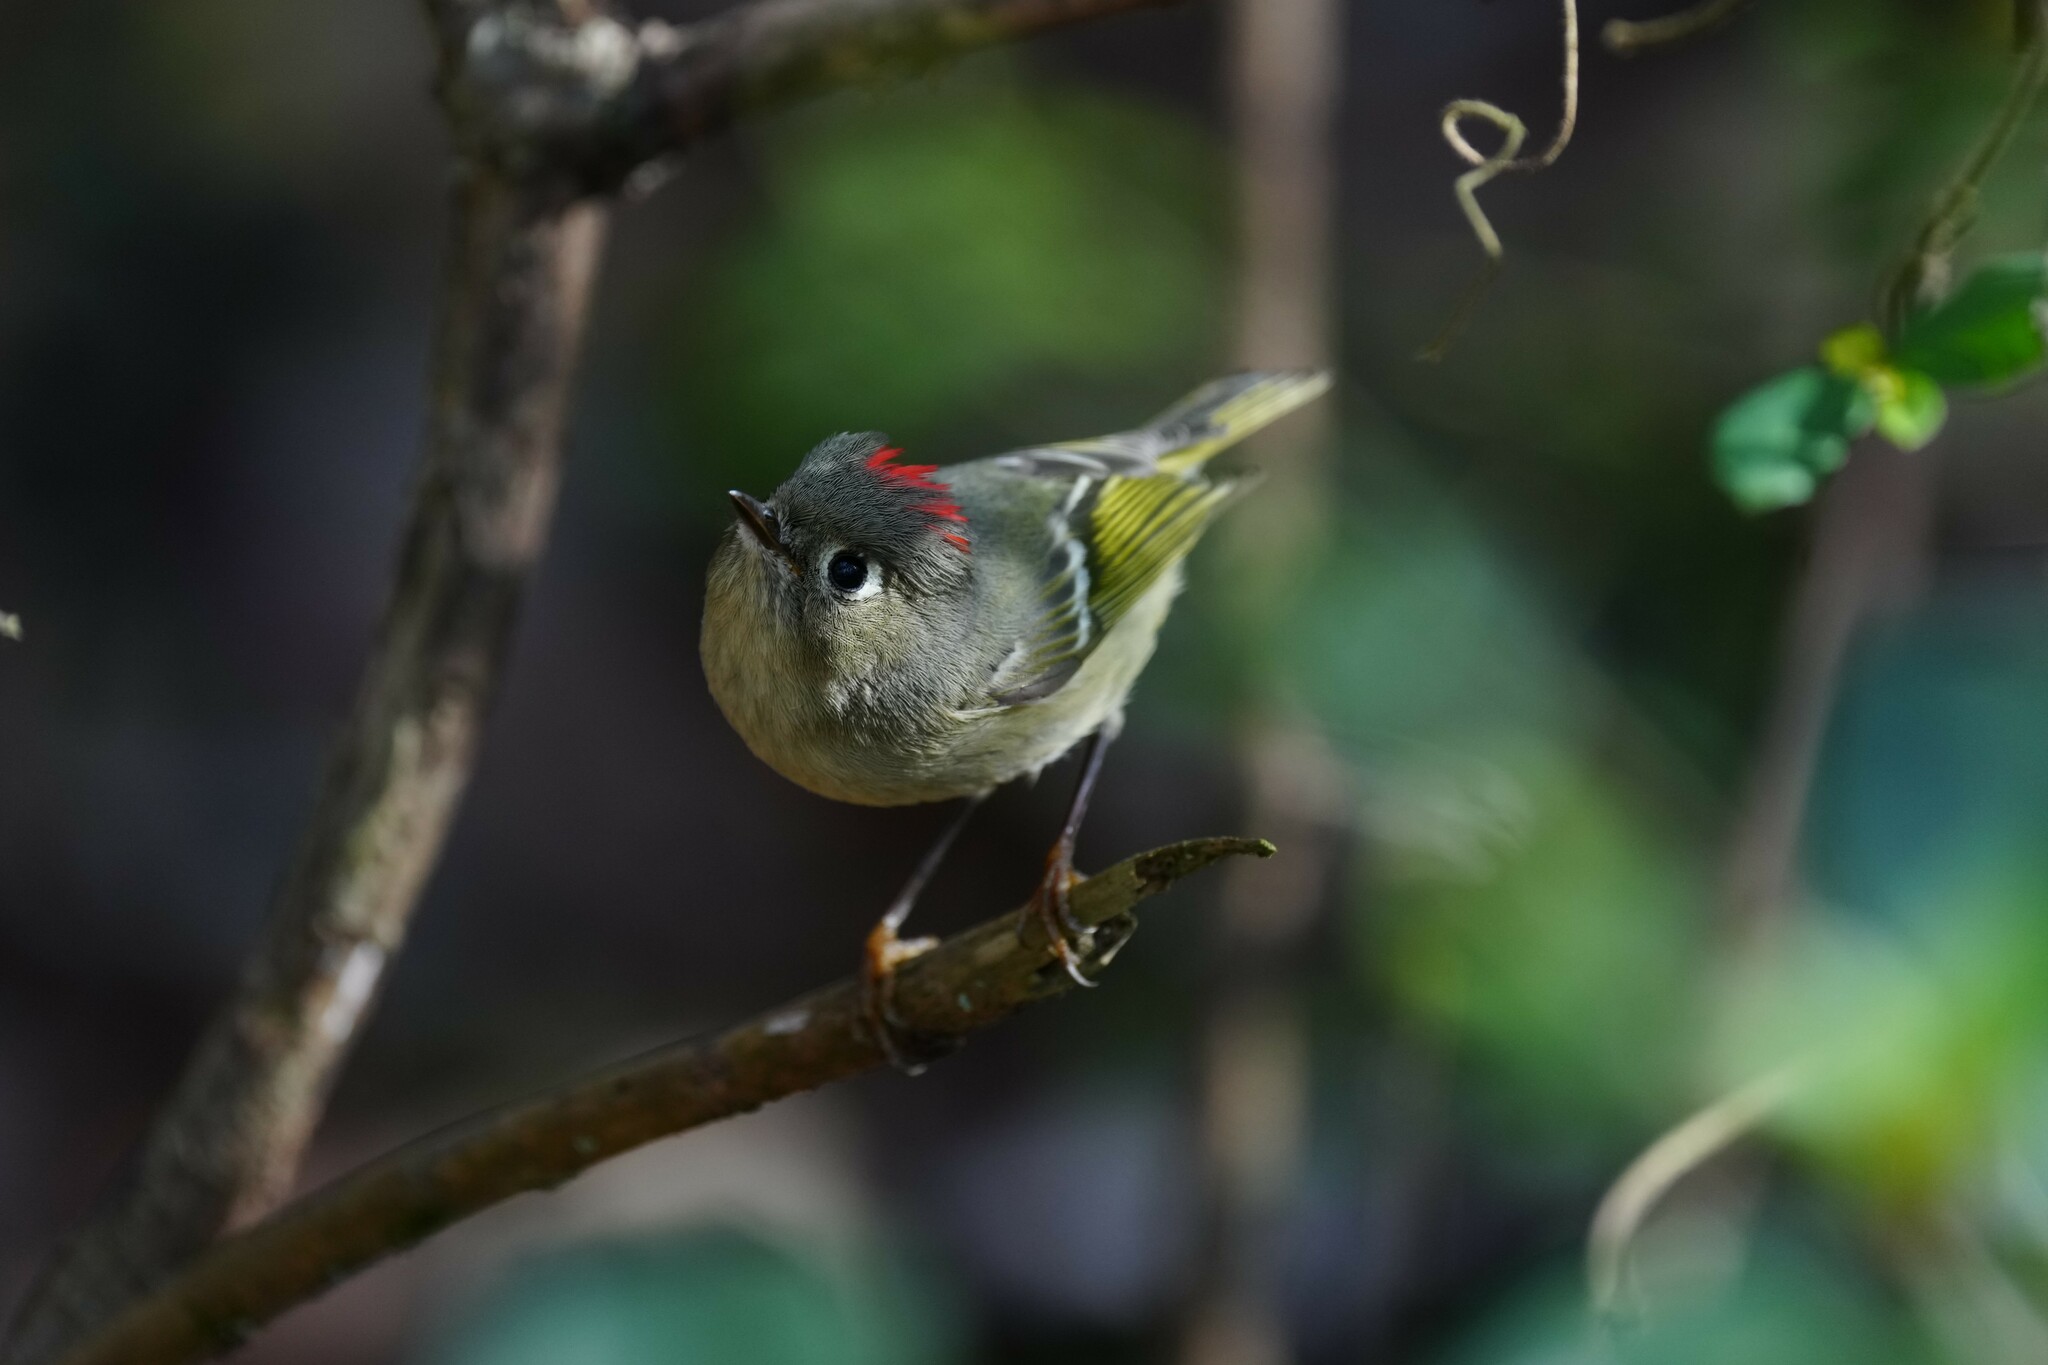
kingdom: Animalia
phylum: Chordata
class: Aves
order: Passeriformes
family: Regulidae
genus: Regulus
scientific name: Regulus calendula
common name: Ruby-crowned kinglet
